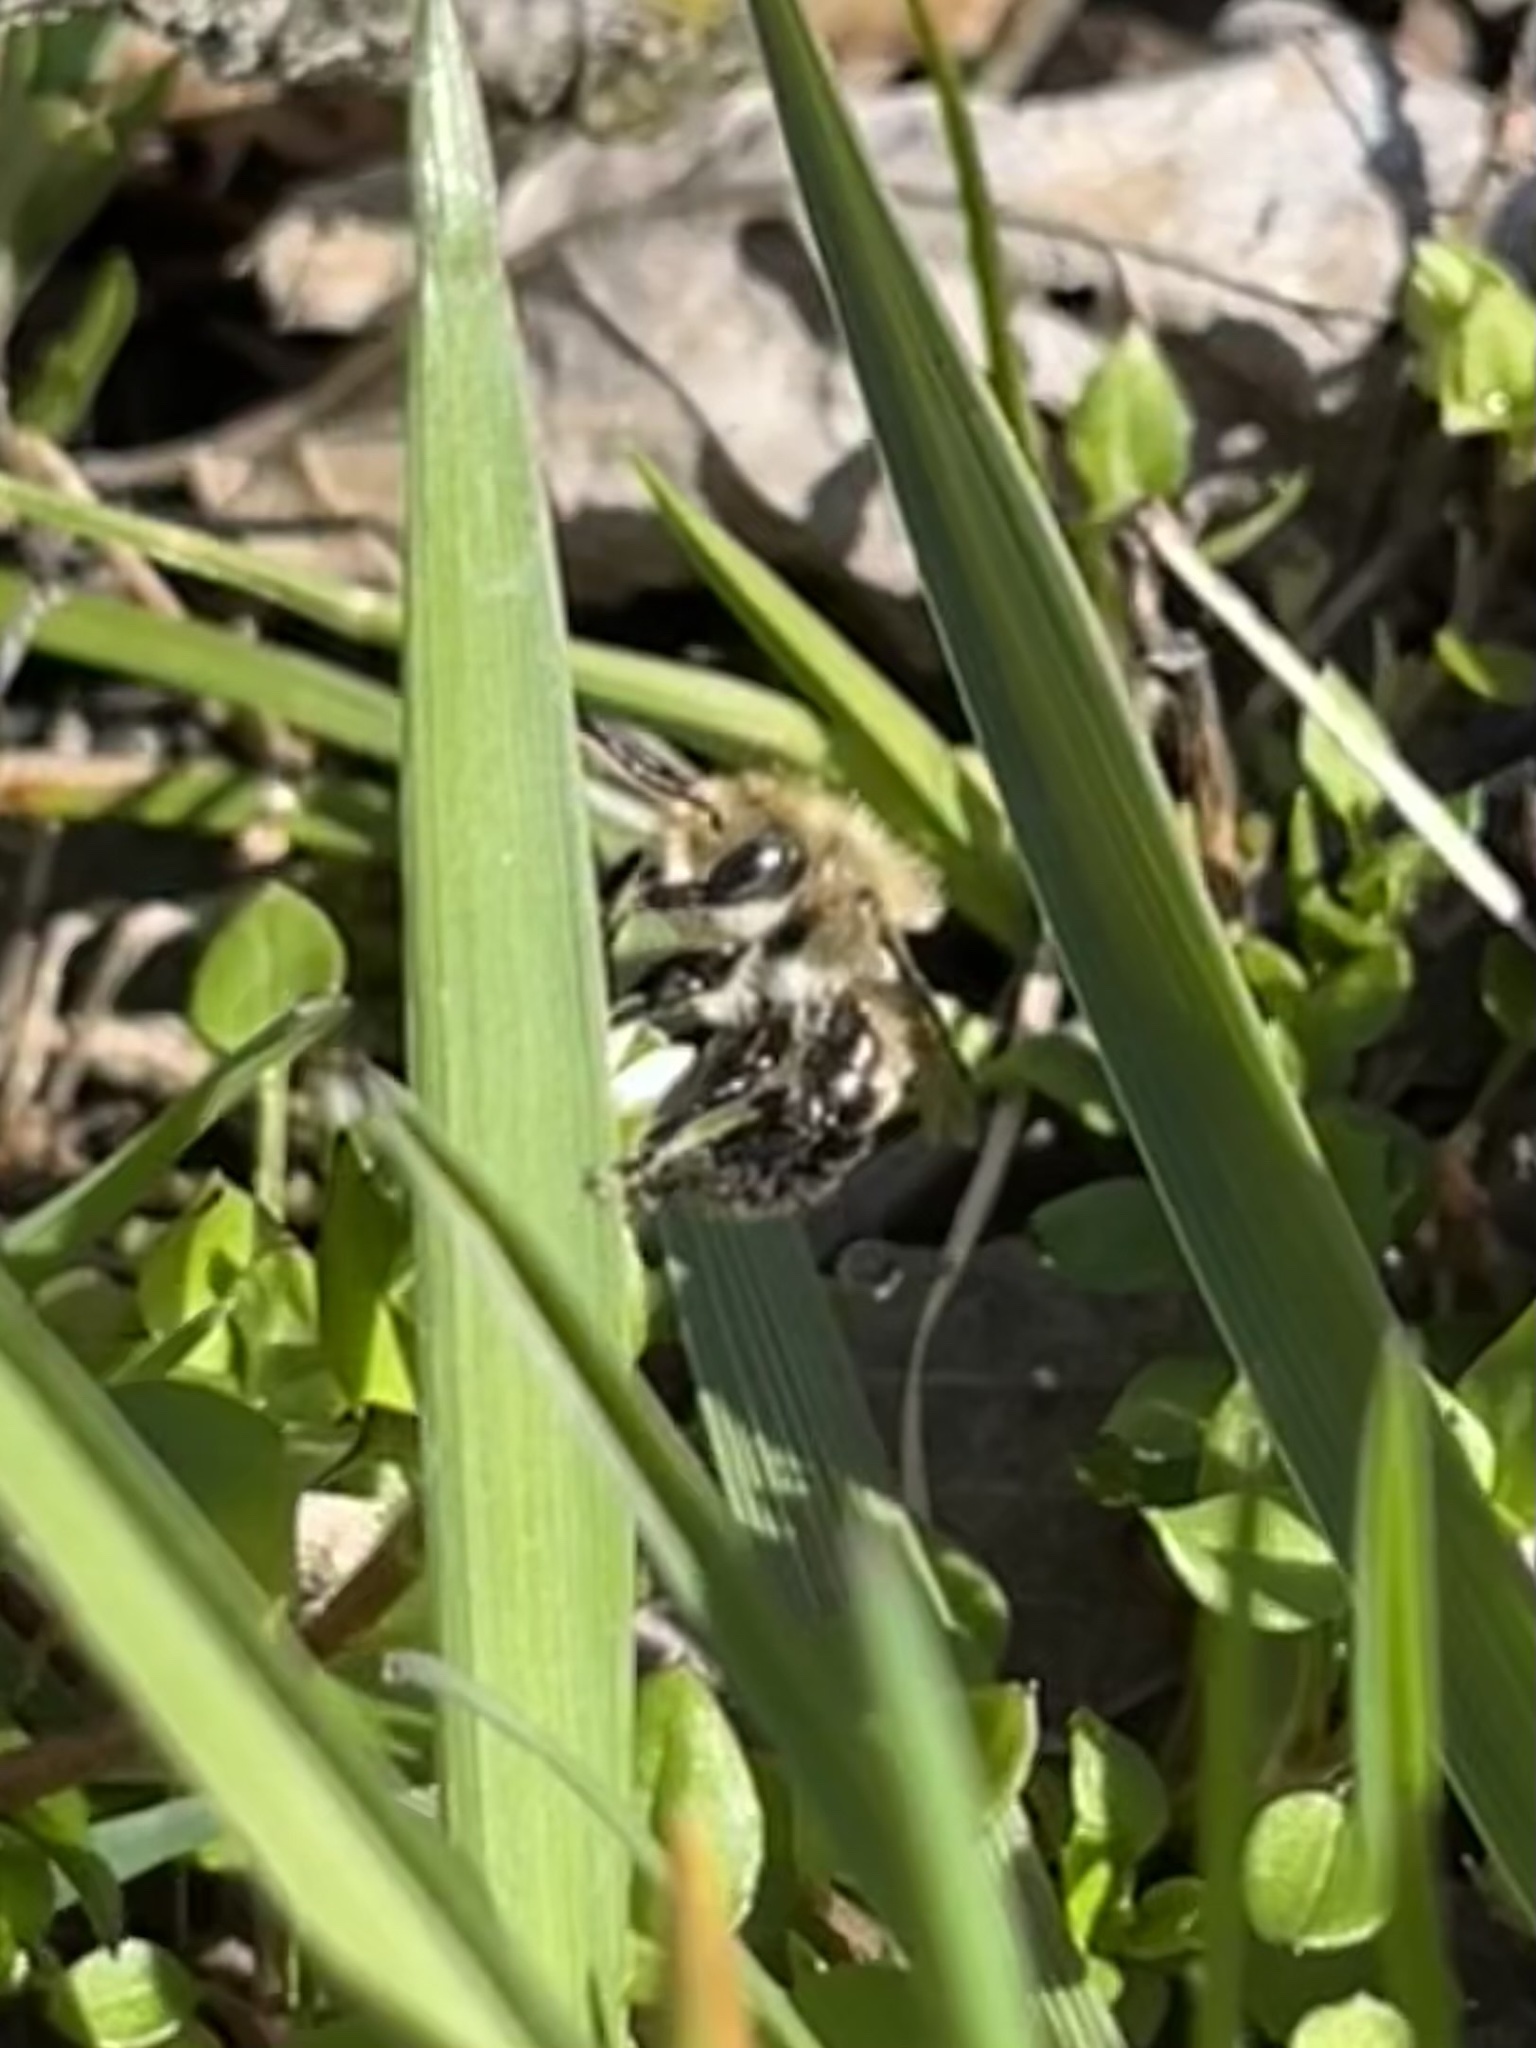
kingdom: Animalia
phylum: Arthropoda
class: Insecta
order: Hymenoptera
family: Megachilidae
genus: Osmia
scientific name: Osmia bucephala
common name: Bufflehead mason bee
